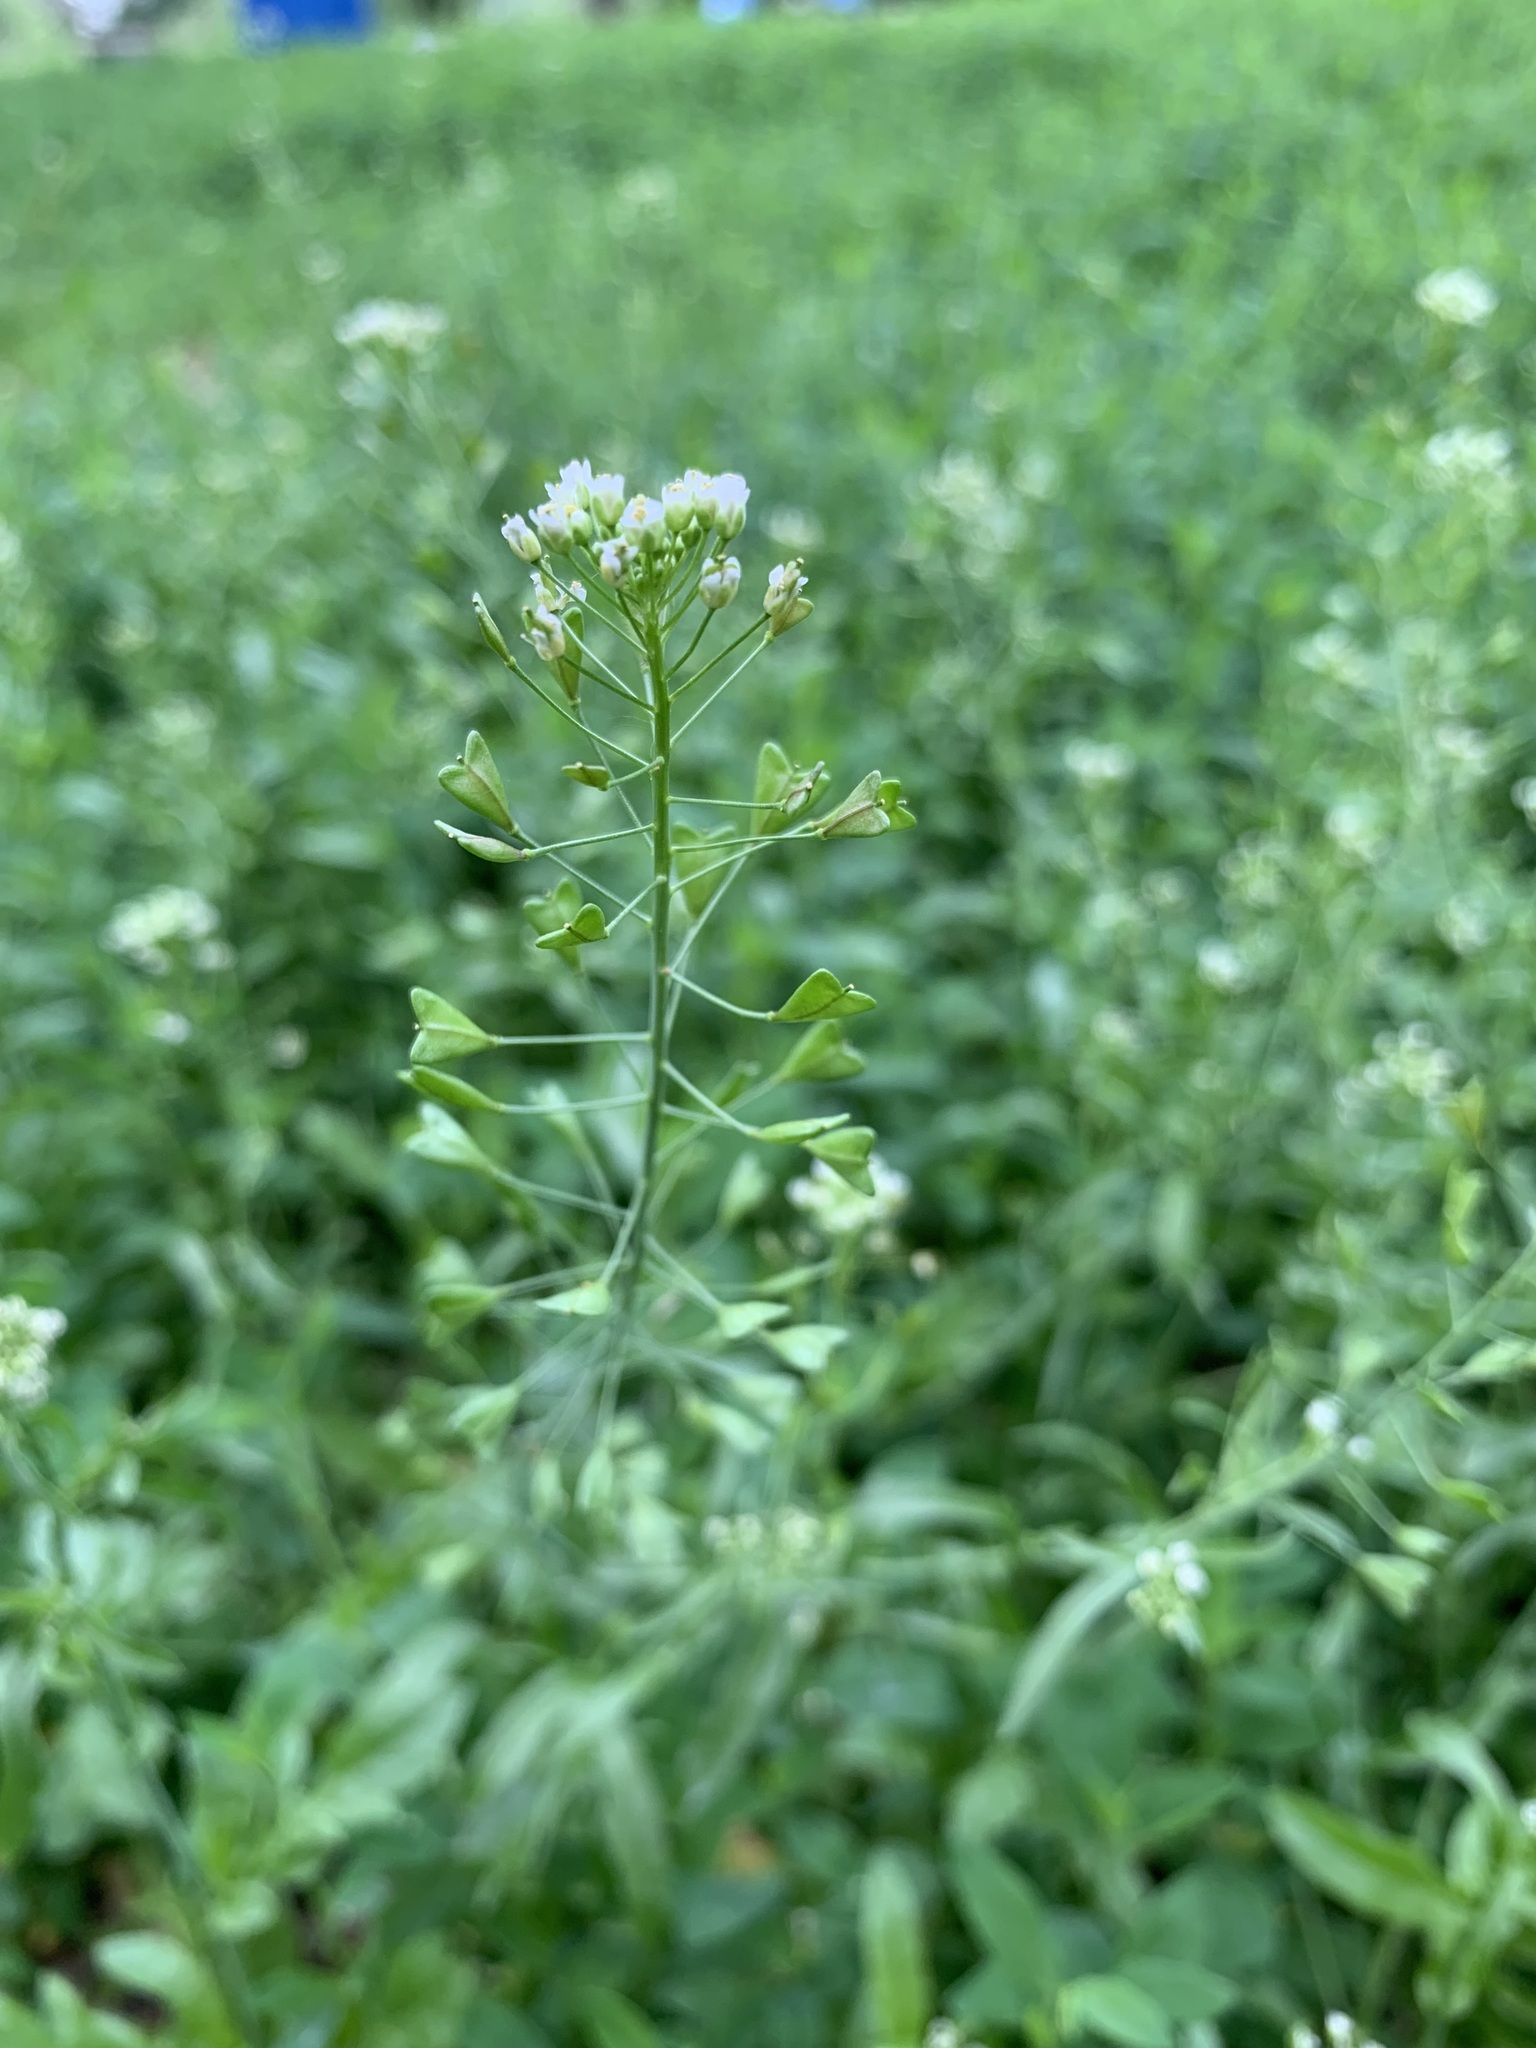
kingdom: Plantae
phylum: Tracheophyta
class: Magnoliopsida
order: Brassicales
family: Brassicaceae
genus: Capsella
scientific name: Capsella bursa-pastoris
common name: Shepherd's purse
